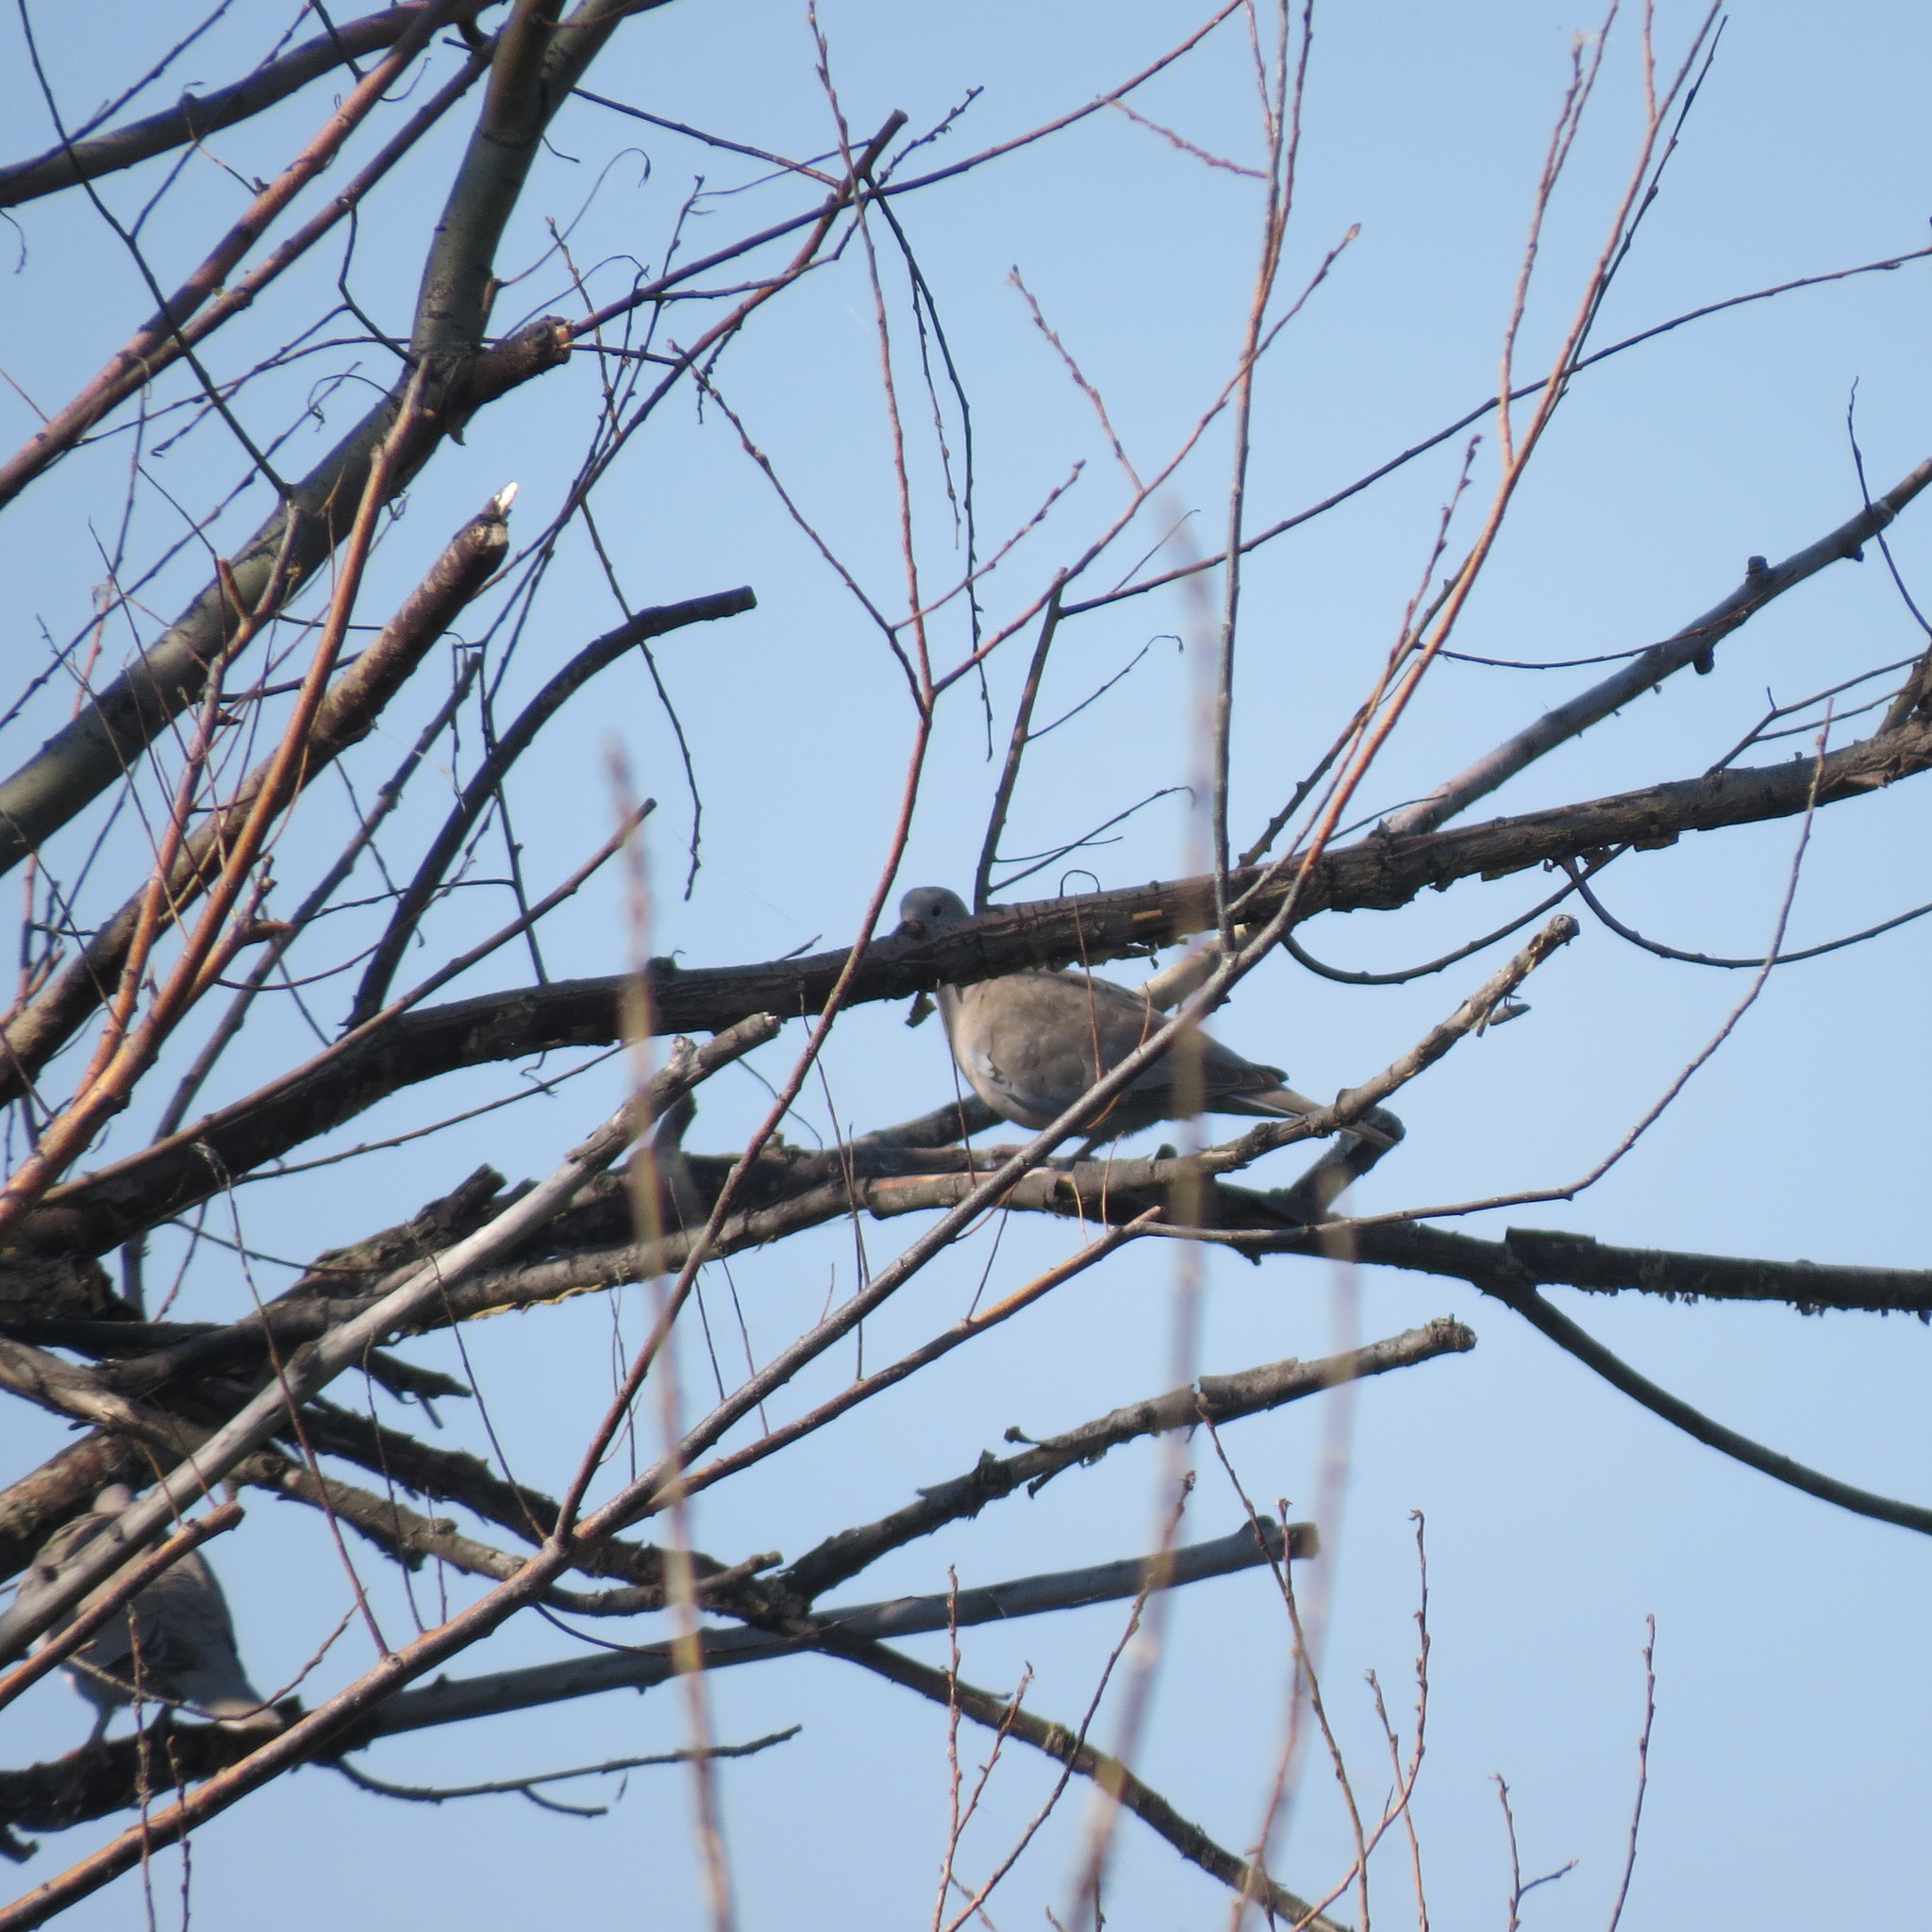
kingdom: Animalia
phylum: Chordata
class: Aves
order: Columbiformes
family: Columbidae
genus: Streptopelia
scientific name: Streptopelia decaocto
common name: Eurasian collared dove
